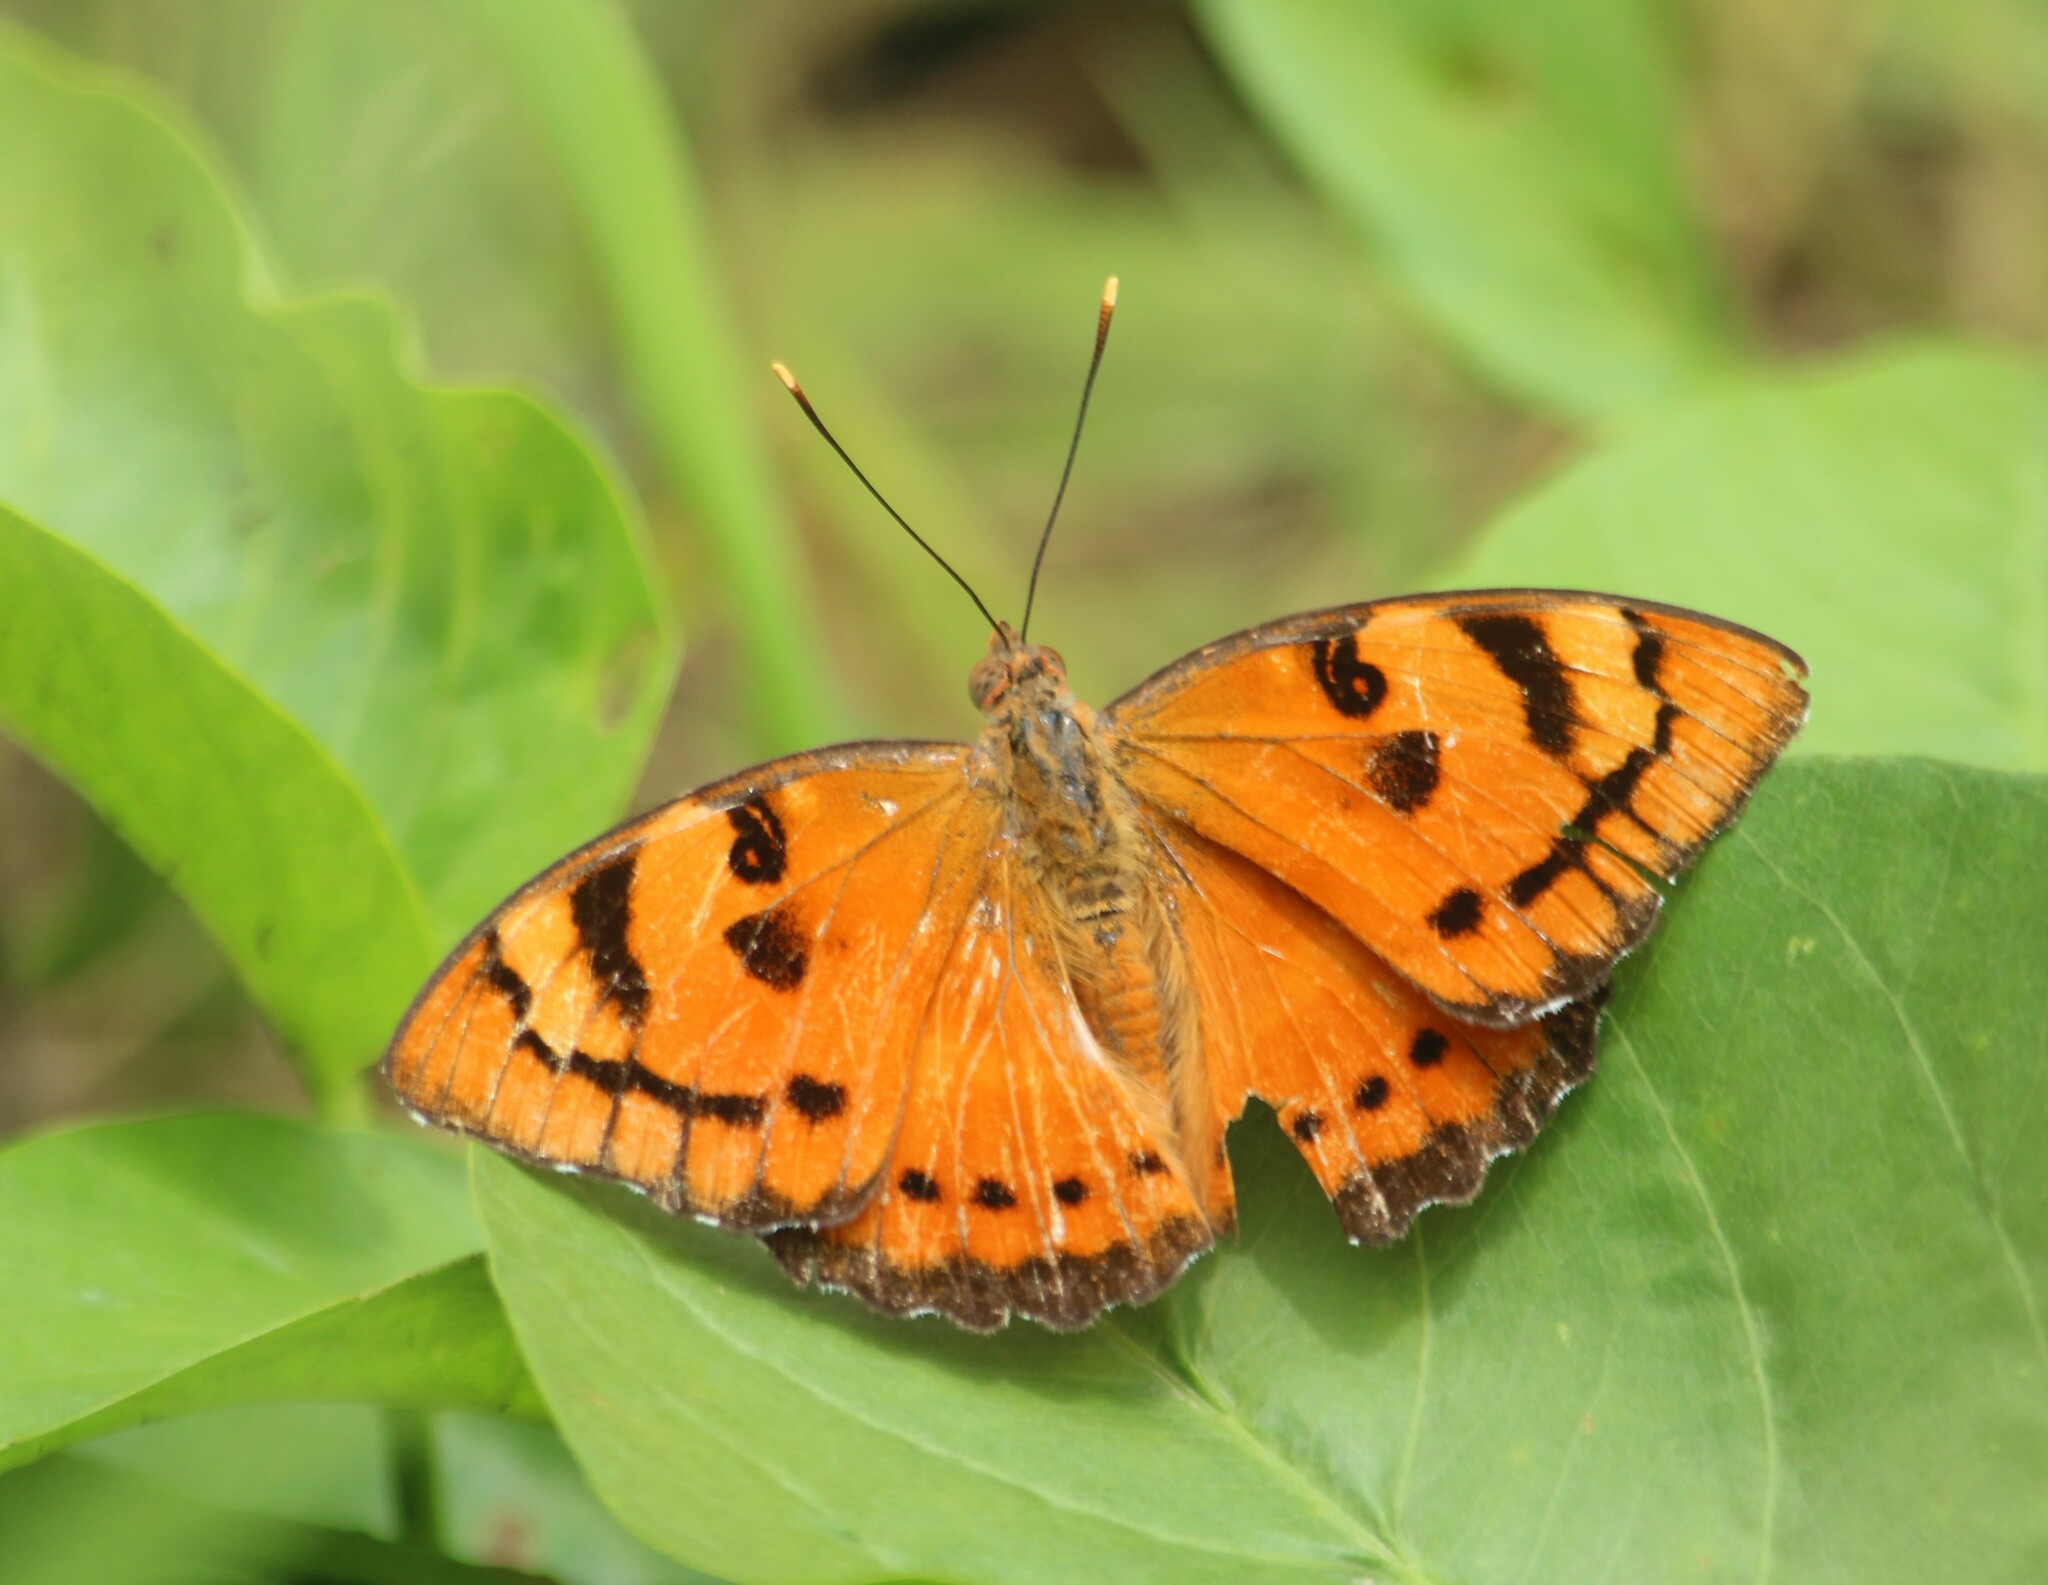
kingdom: Animalia
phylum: Arthropoda
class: Insecta
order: Lepidoptera
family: Nymphalidae
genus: Euthalia
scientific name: Euthalia nais
